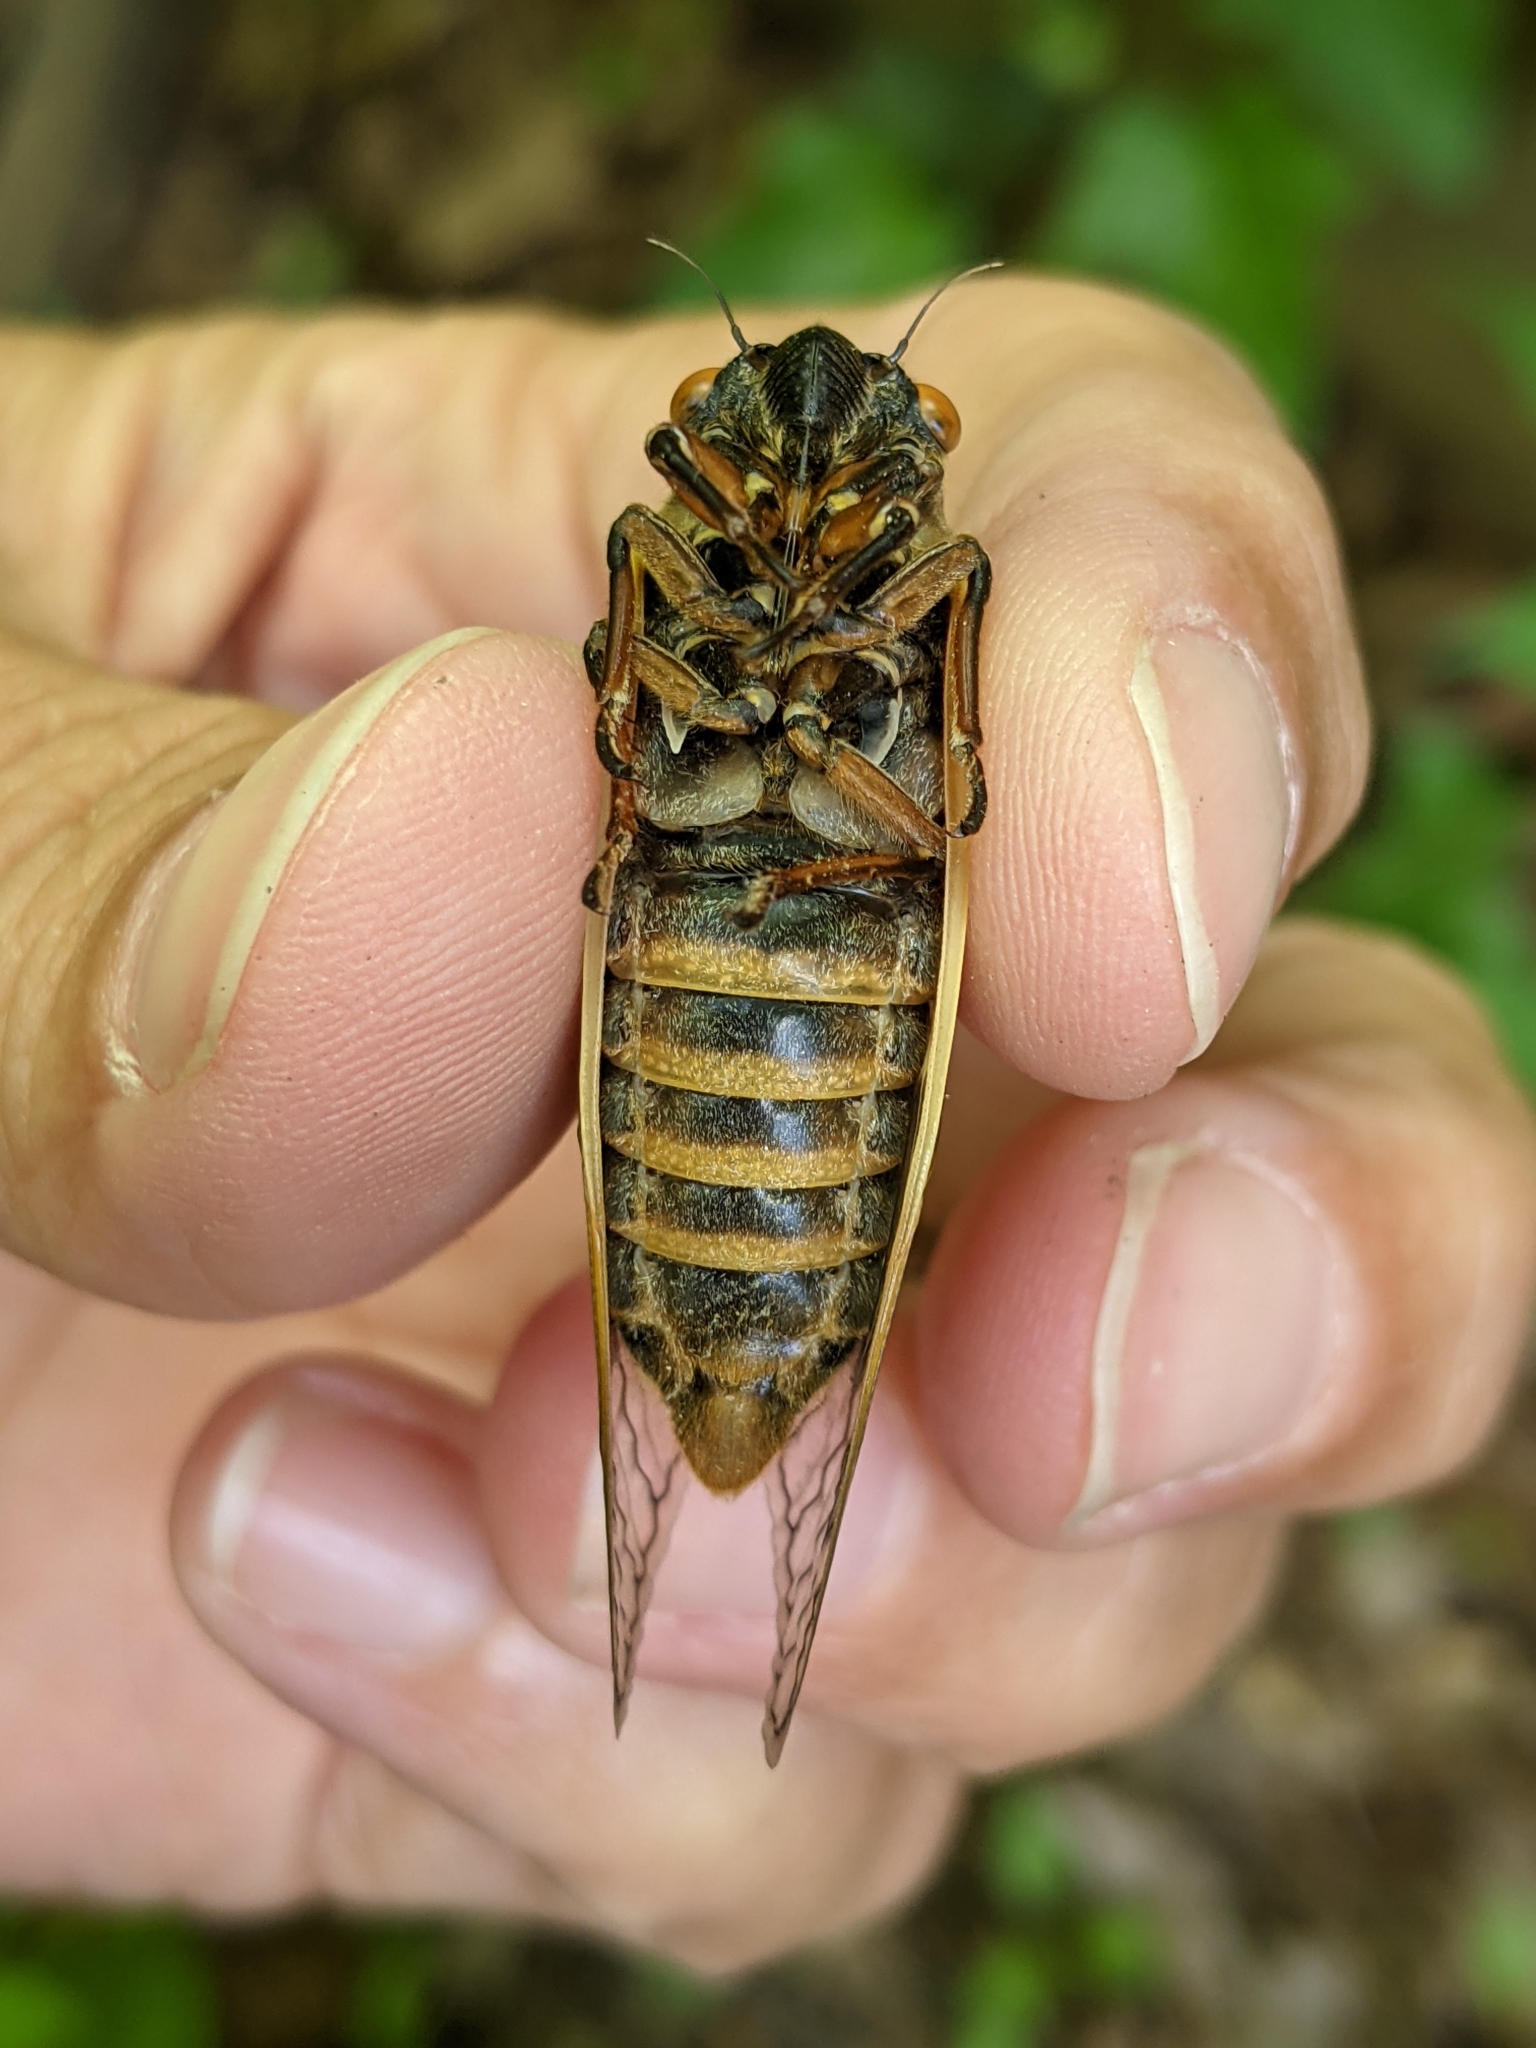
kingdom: Animalia
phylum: Arthropoda
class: Insecta
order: Hemiptera
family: Cicadidae
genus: Magicicada
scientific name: Magicicada septendecim
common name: Periodical cicada
